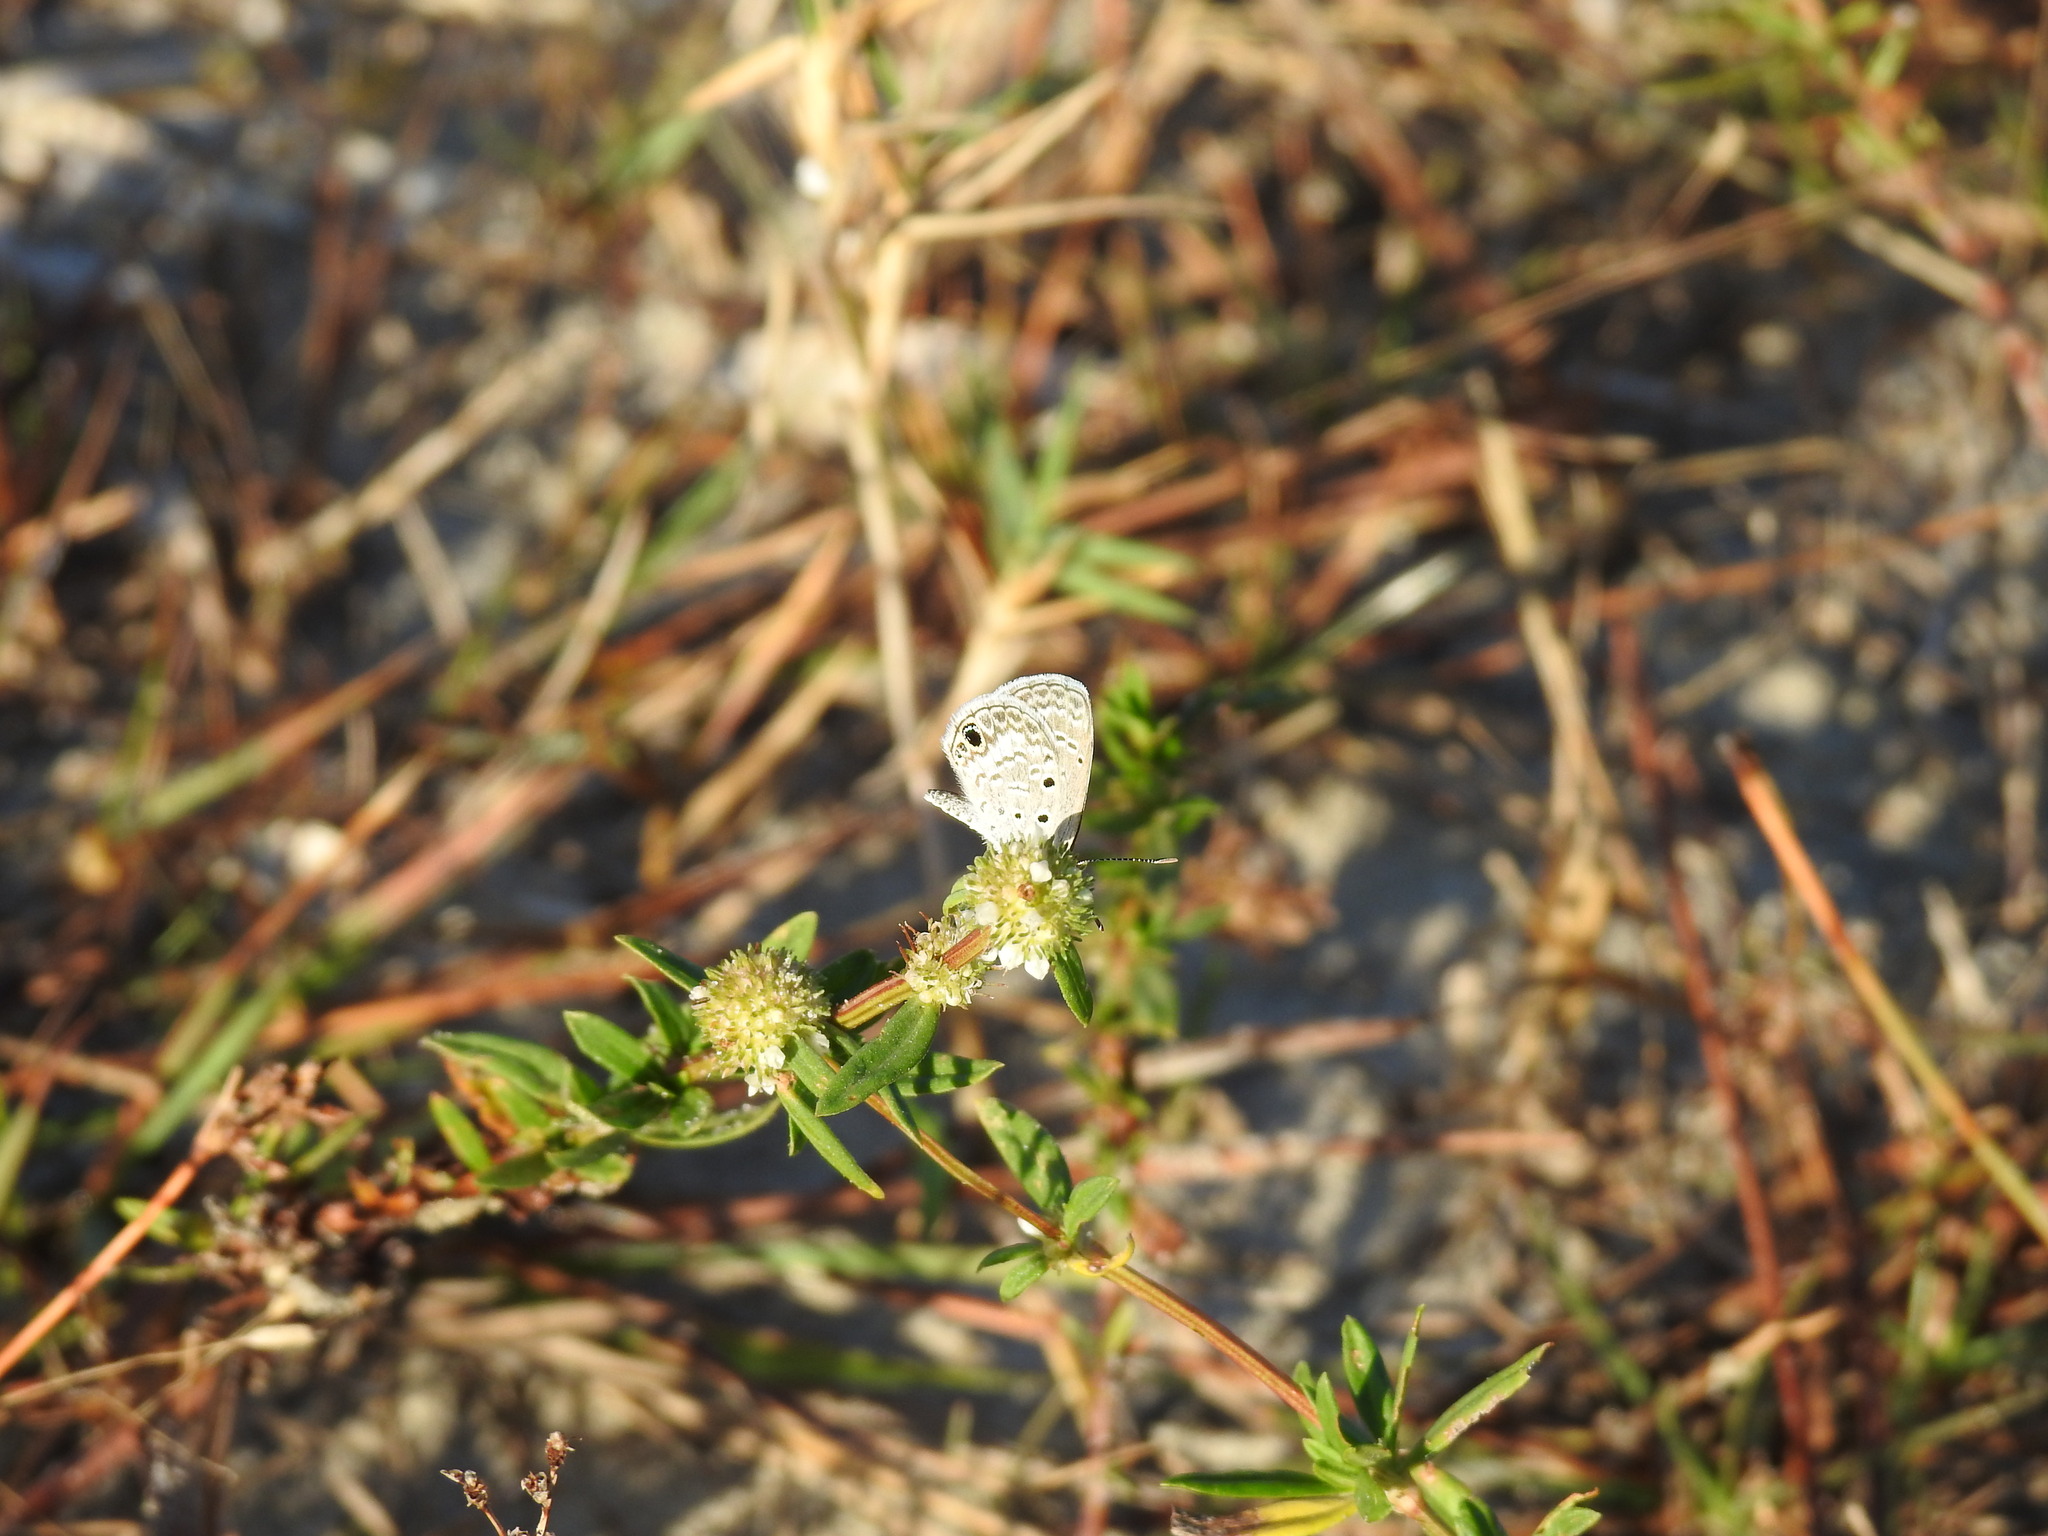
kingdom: Animalia
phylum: Arthropoda
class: Insecta
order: Lepidoptera
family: Lycaenidae
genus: Hemiargus
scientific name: Hemiargus ceraunus
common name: Ceraunus blue
